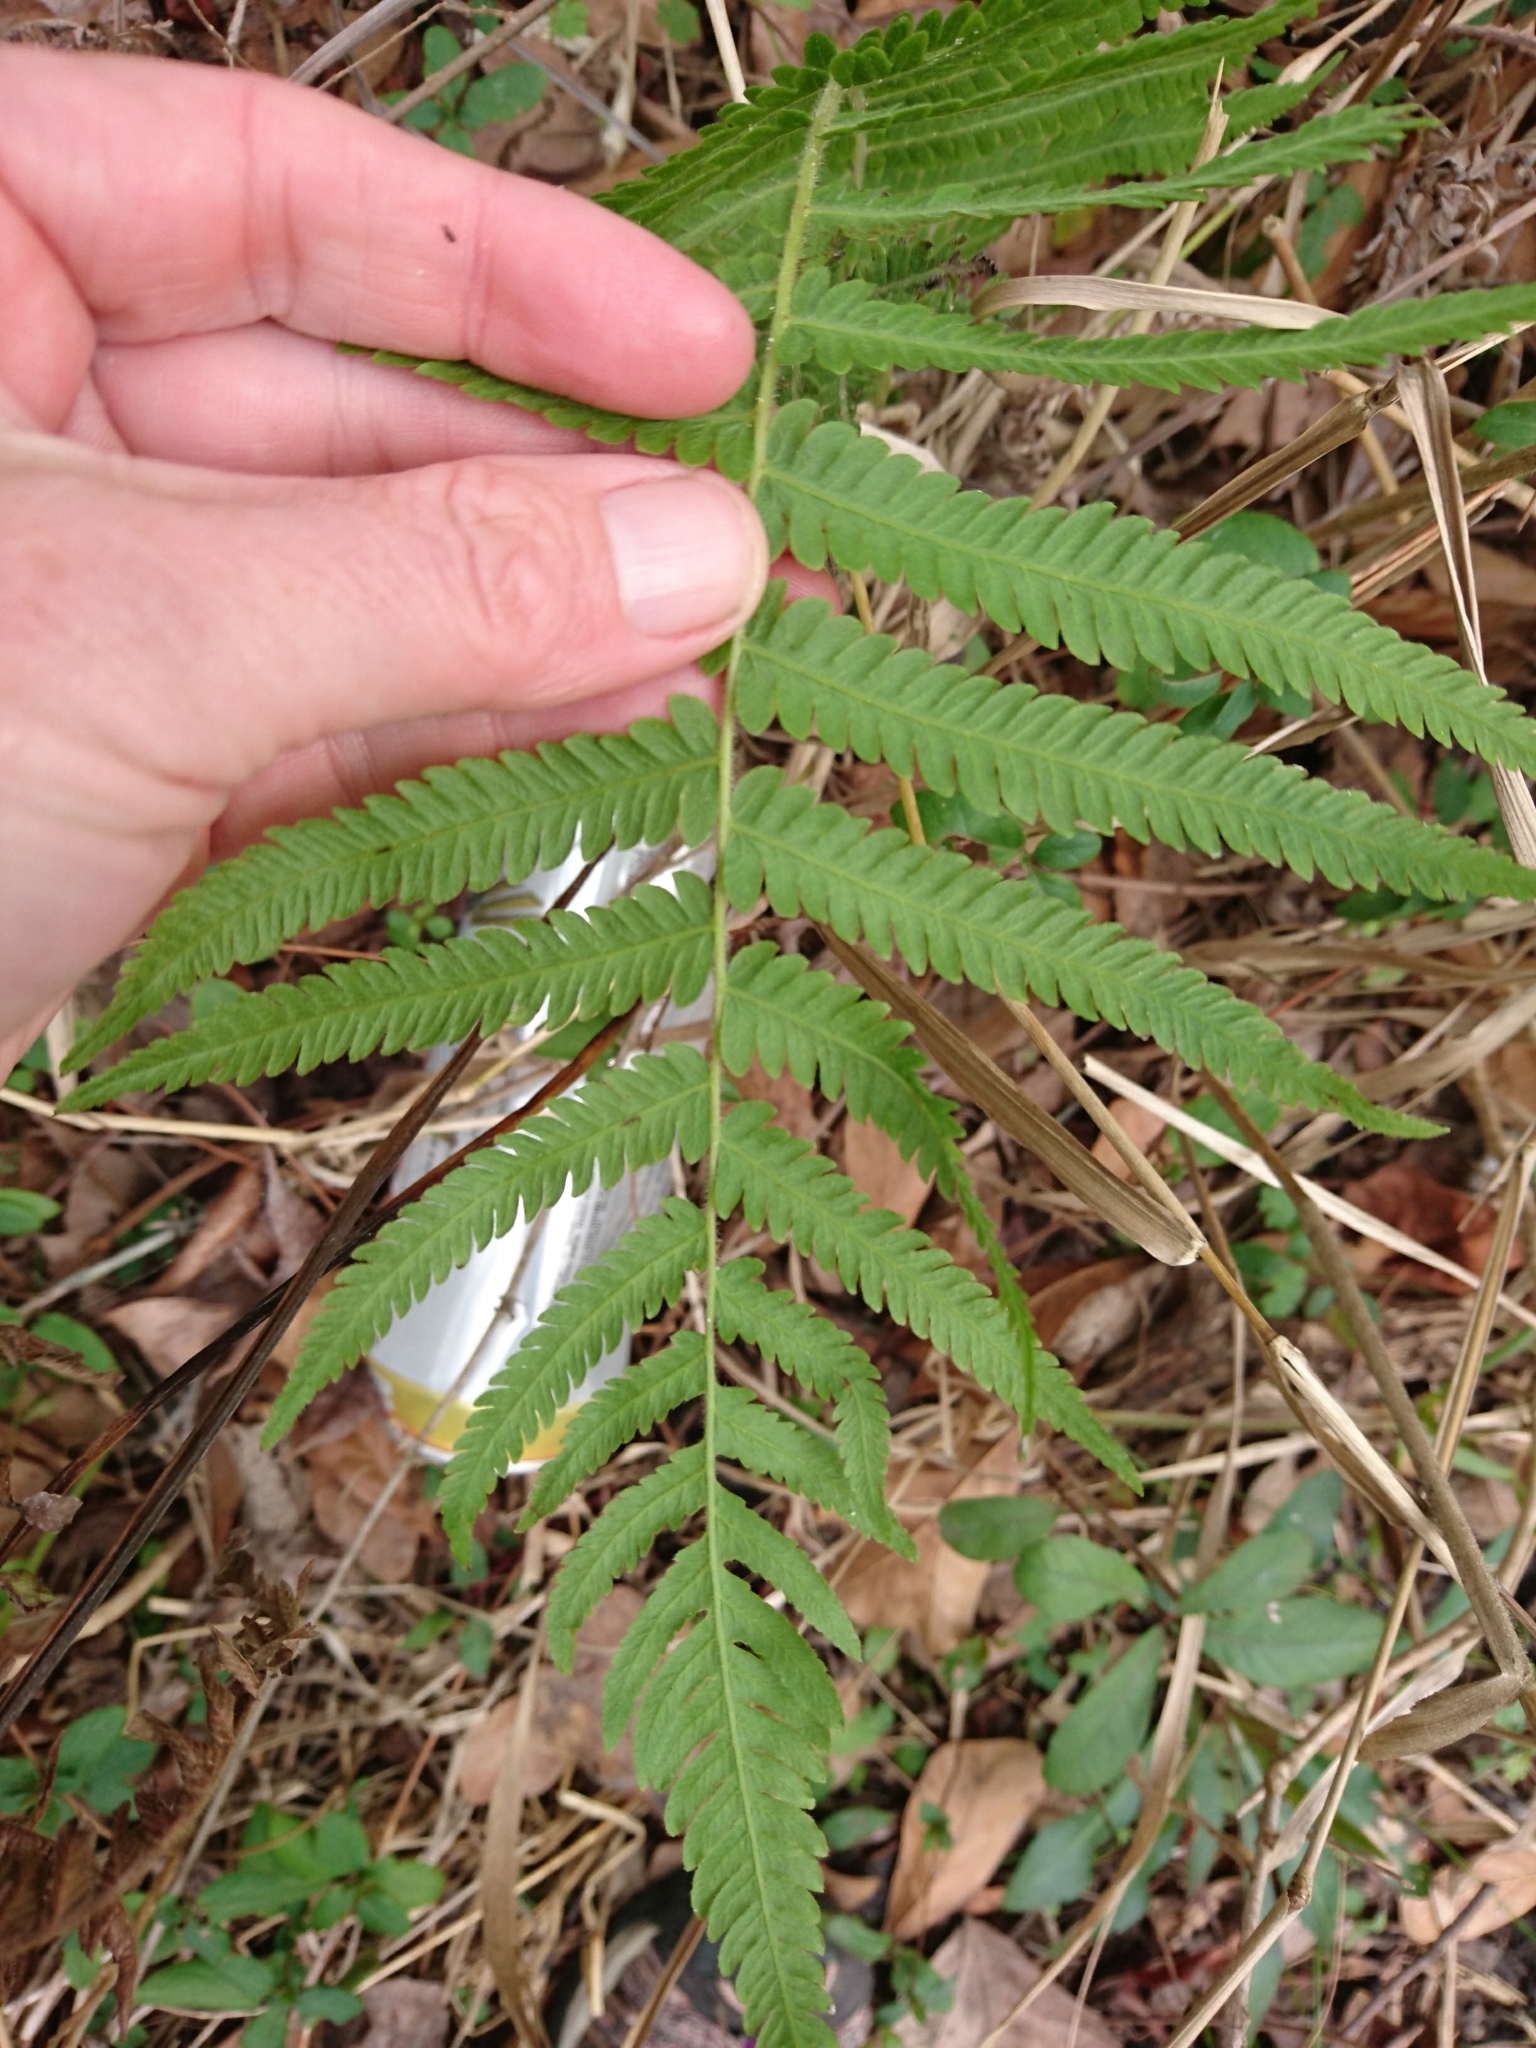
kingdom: Plantae
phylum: Tracheophyta
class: Polypodiopsida
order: Polypodiales
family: Thelypteridaceae
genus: Pelazoneuron
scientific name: Pelazoneuron kunthii
